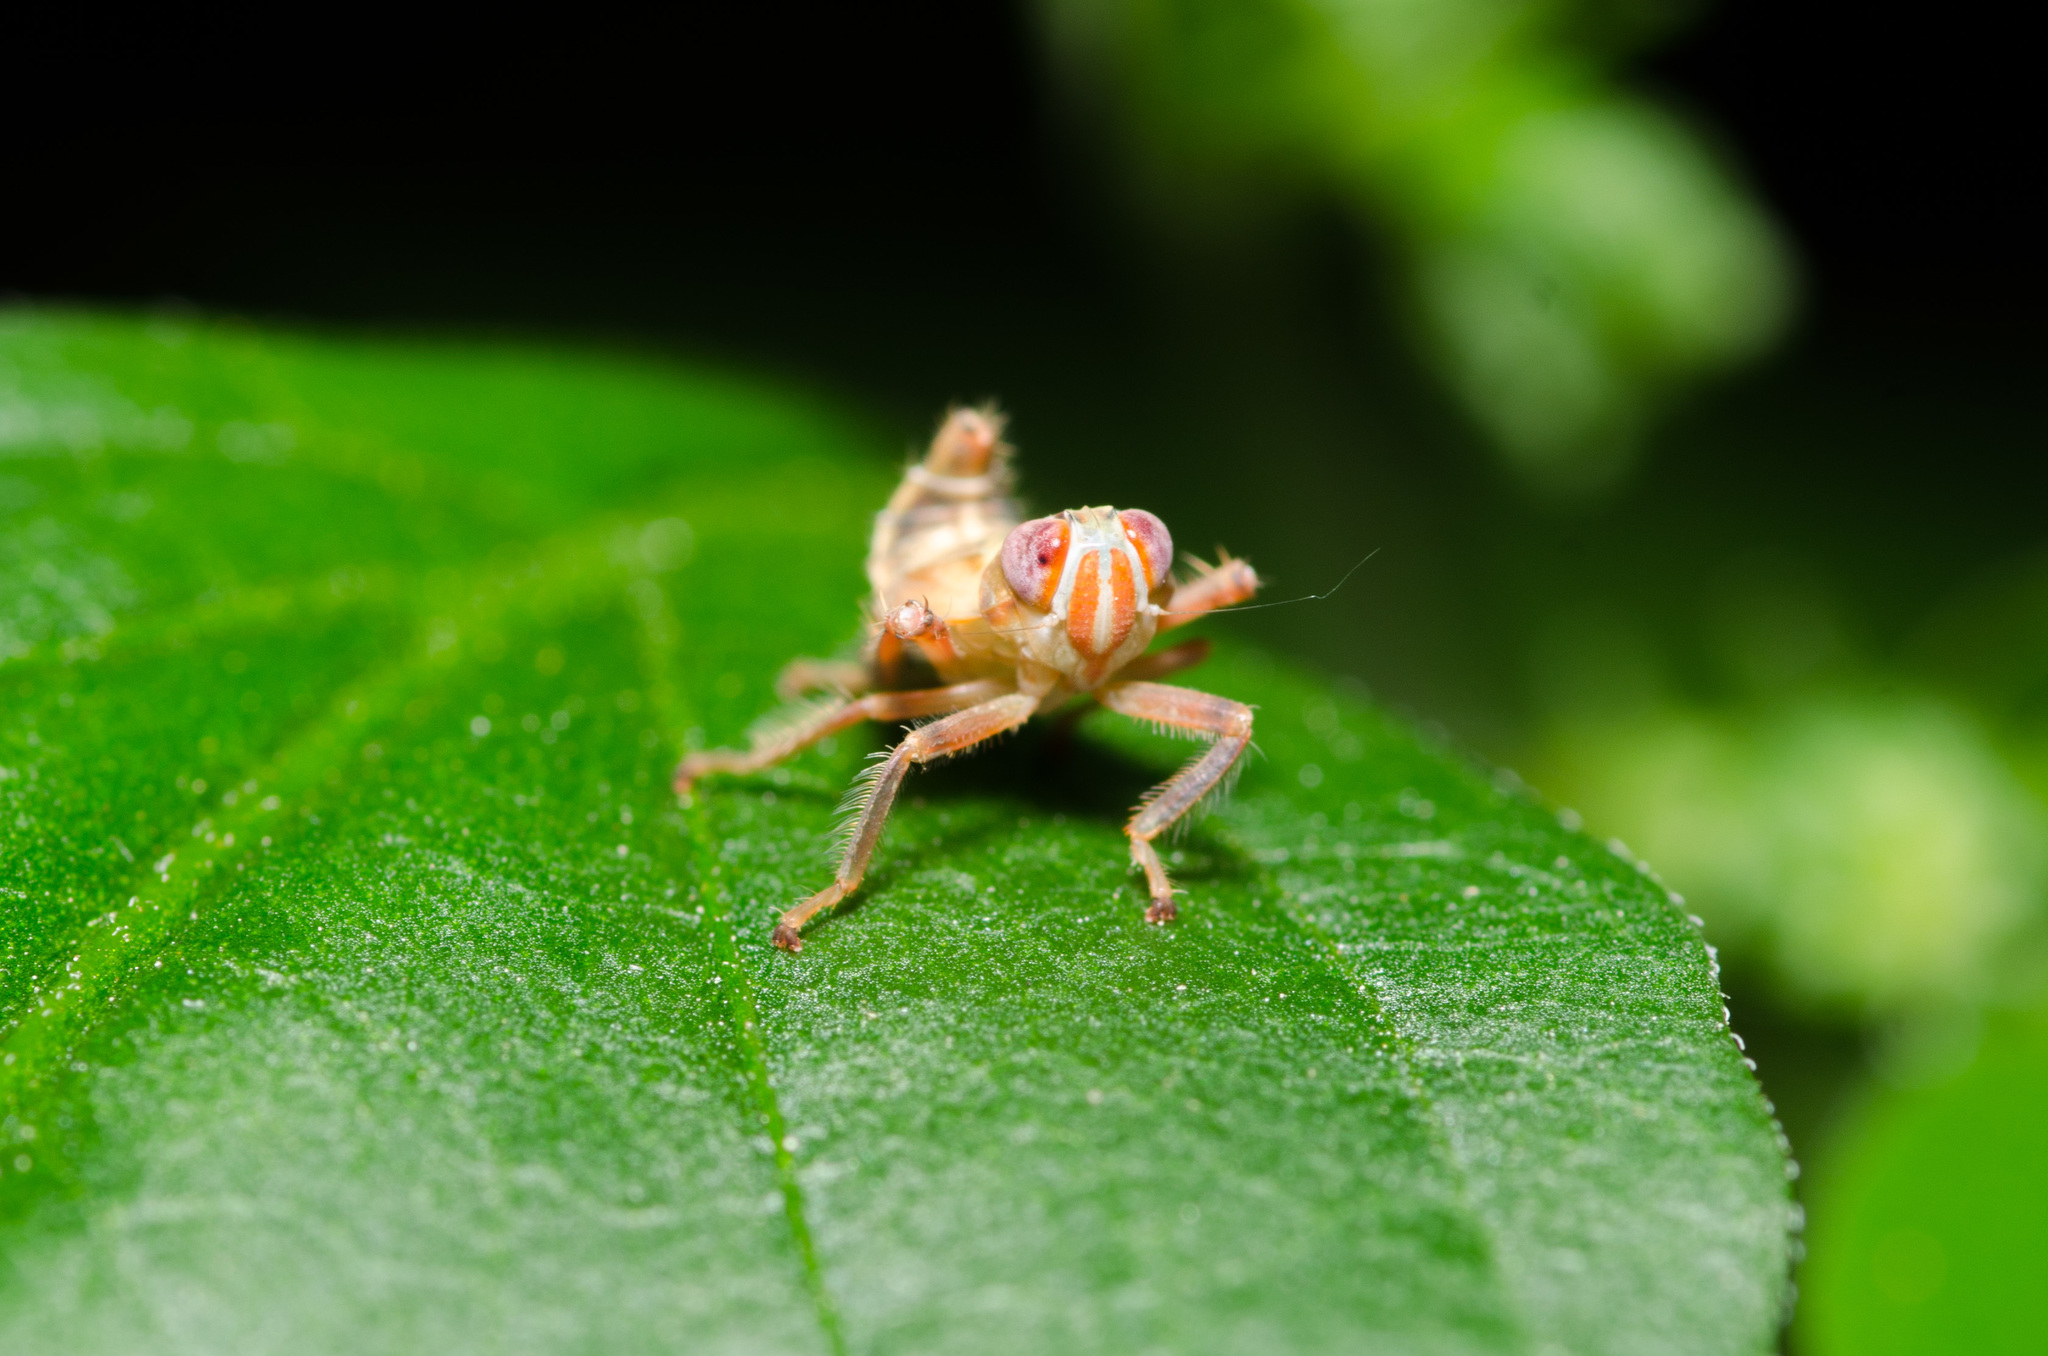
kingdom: Animalia
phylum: Arthropoda
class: Insecta
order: Hemiptera
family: Cicadellidae
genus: Jikradia
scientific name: Jikradia olitoria
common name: Coppery leafhopper
